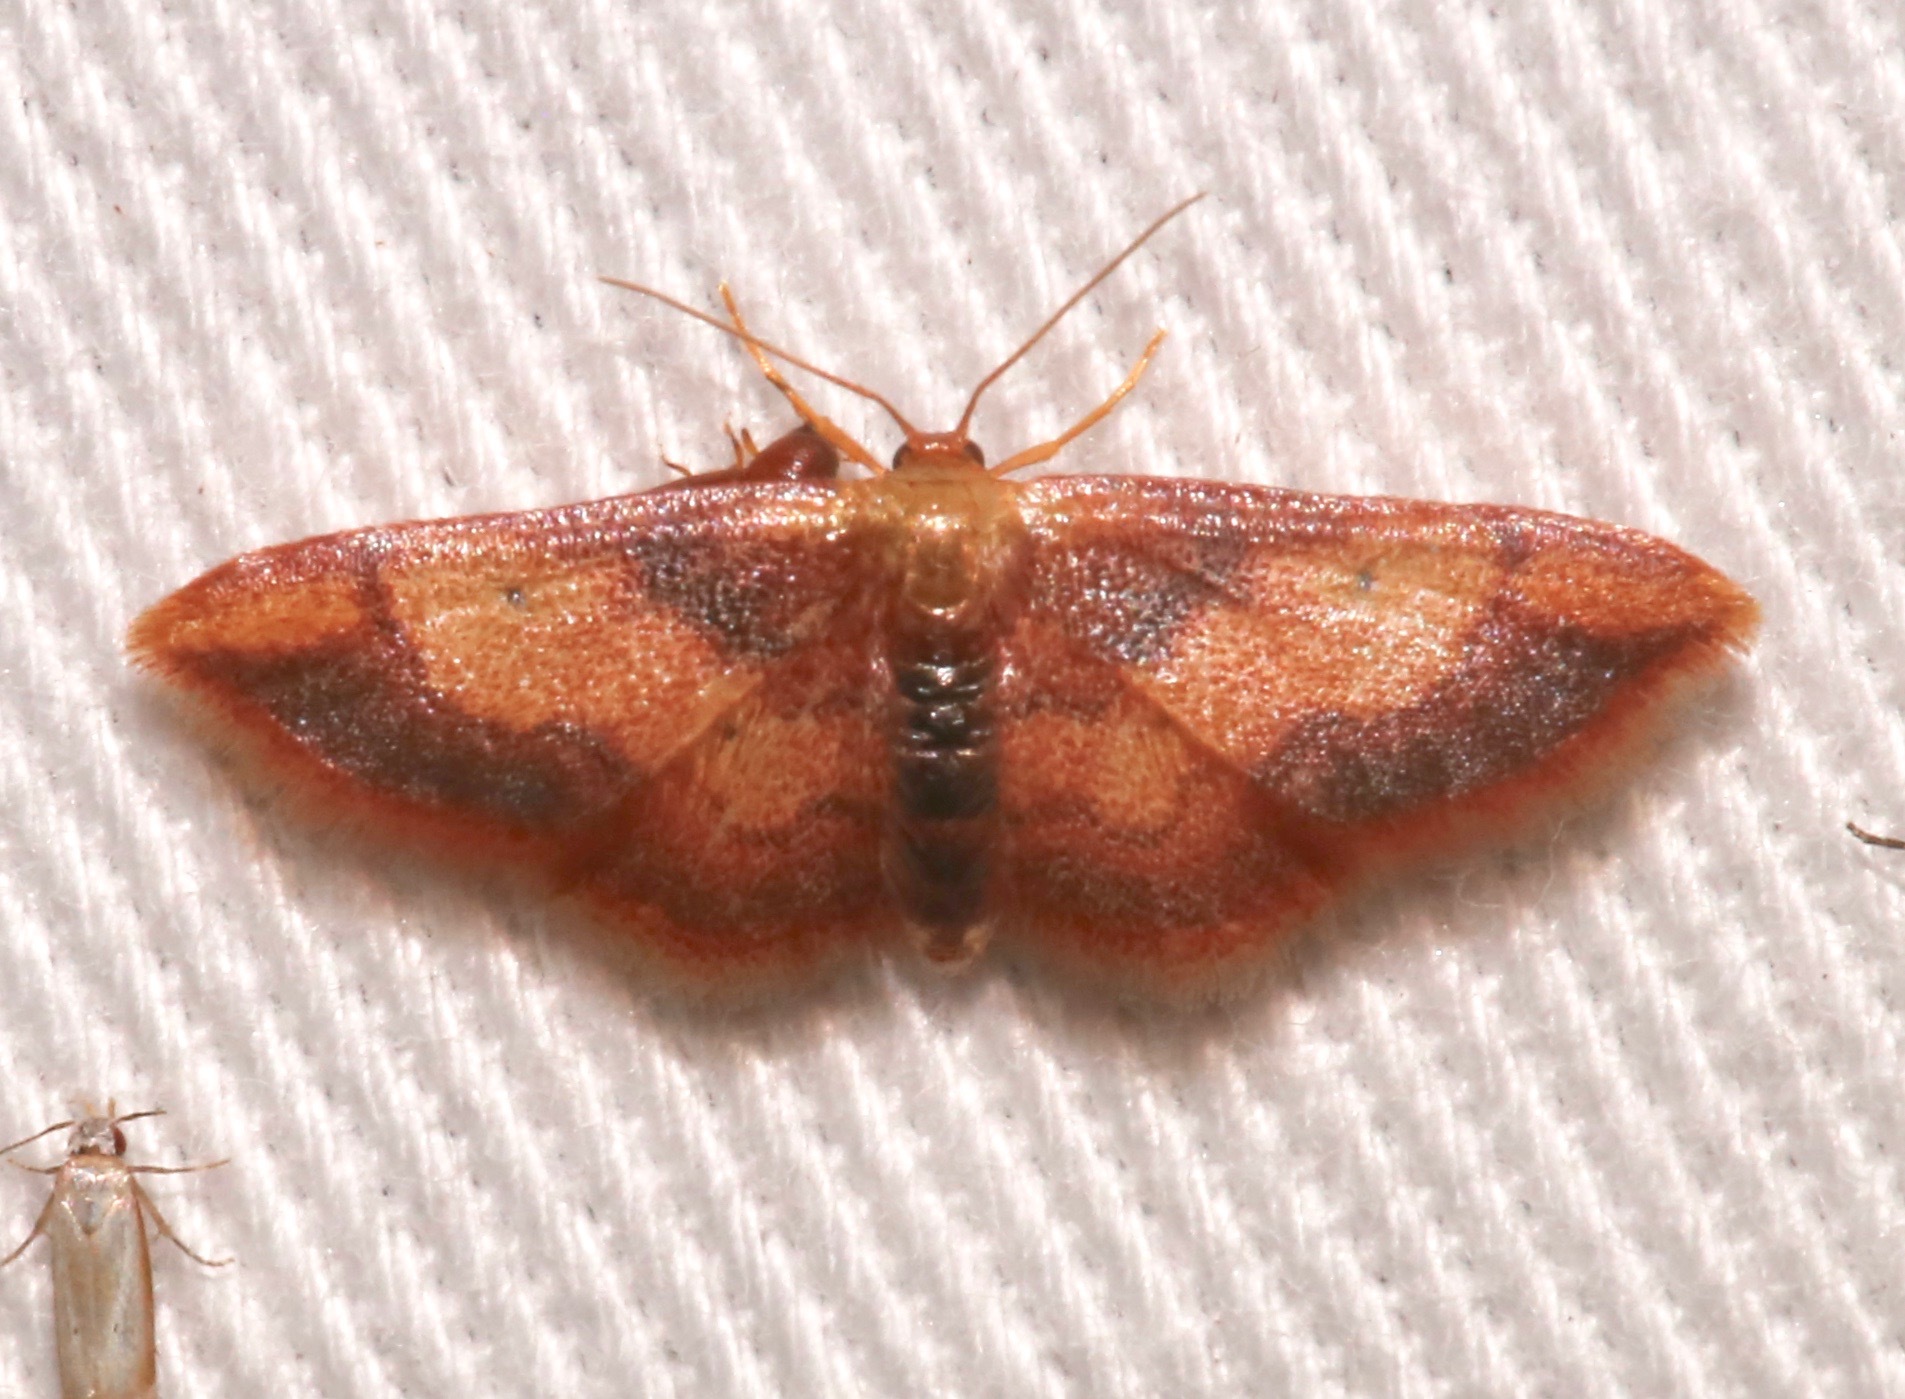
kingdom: Animalia
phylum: Arthropoda
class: Insecta
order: Lepidoptera
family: Geometridae
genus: Idaea
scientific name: Idaea demissaria
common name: Red-bordered wave
